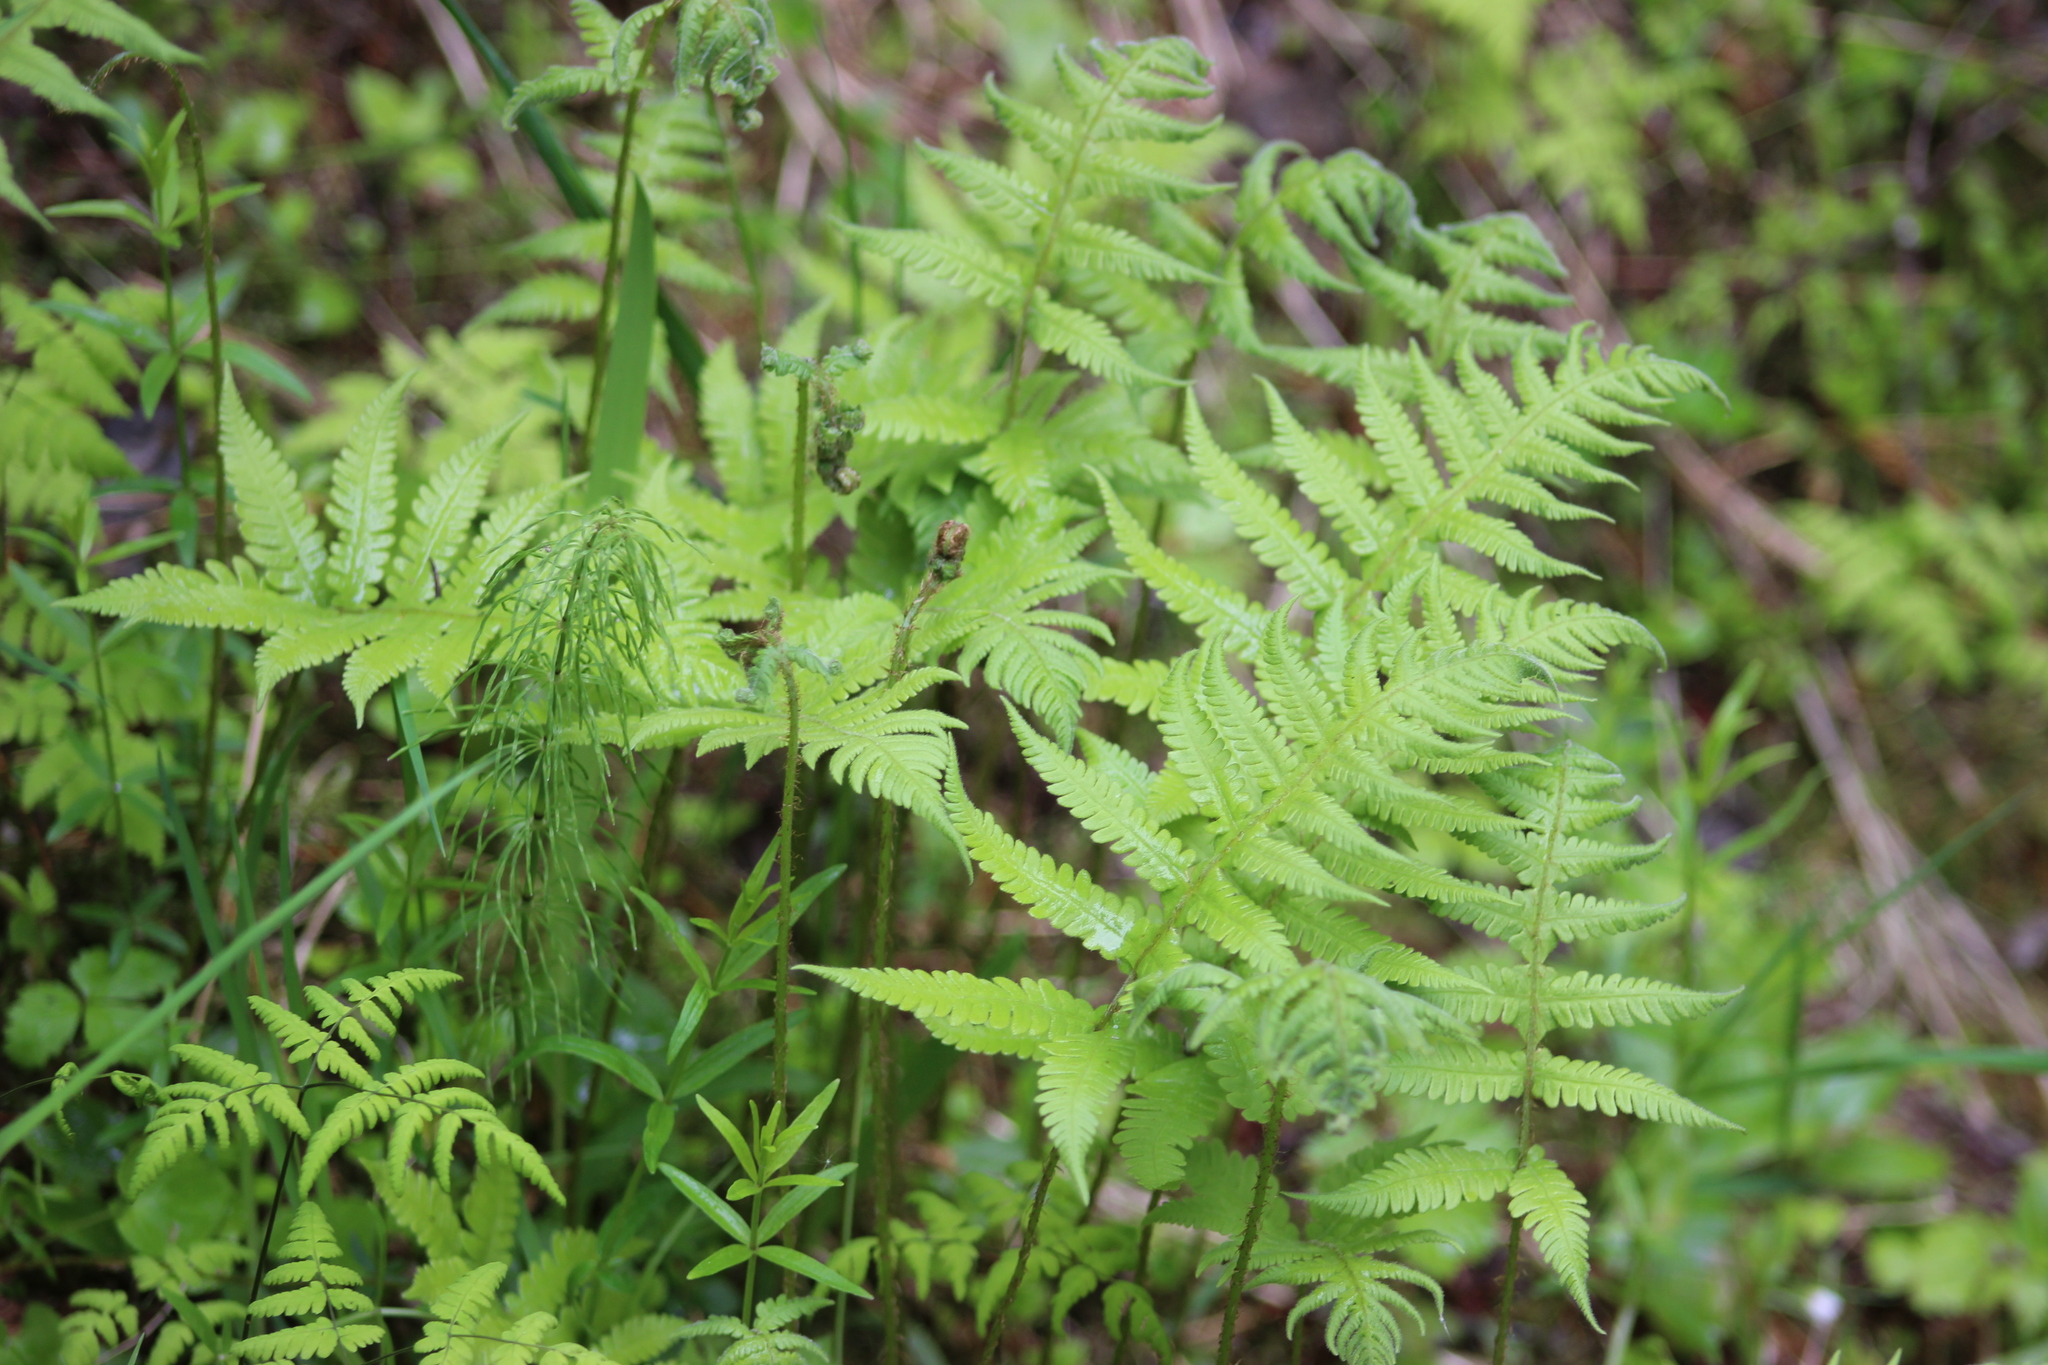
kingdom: Plantae
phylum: Tracheophyta
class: Polypodiopsida
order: Polypodiales
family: Thelypteridaceae
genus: Phegopteris
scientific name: Phegopteris connectilis
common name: Beech fern
